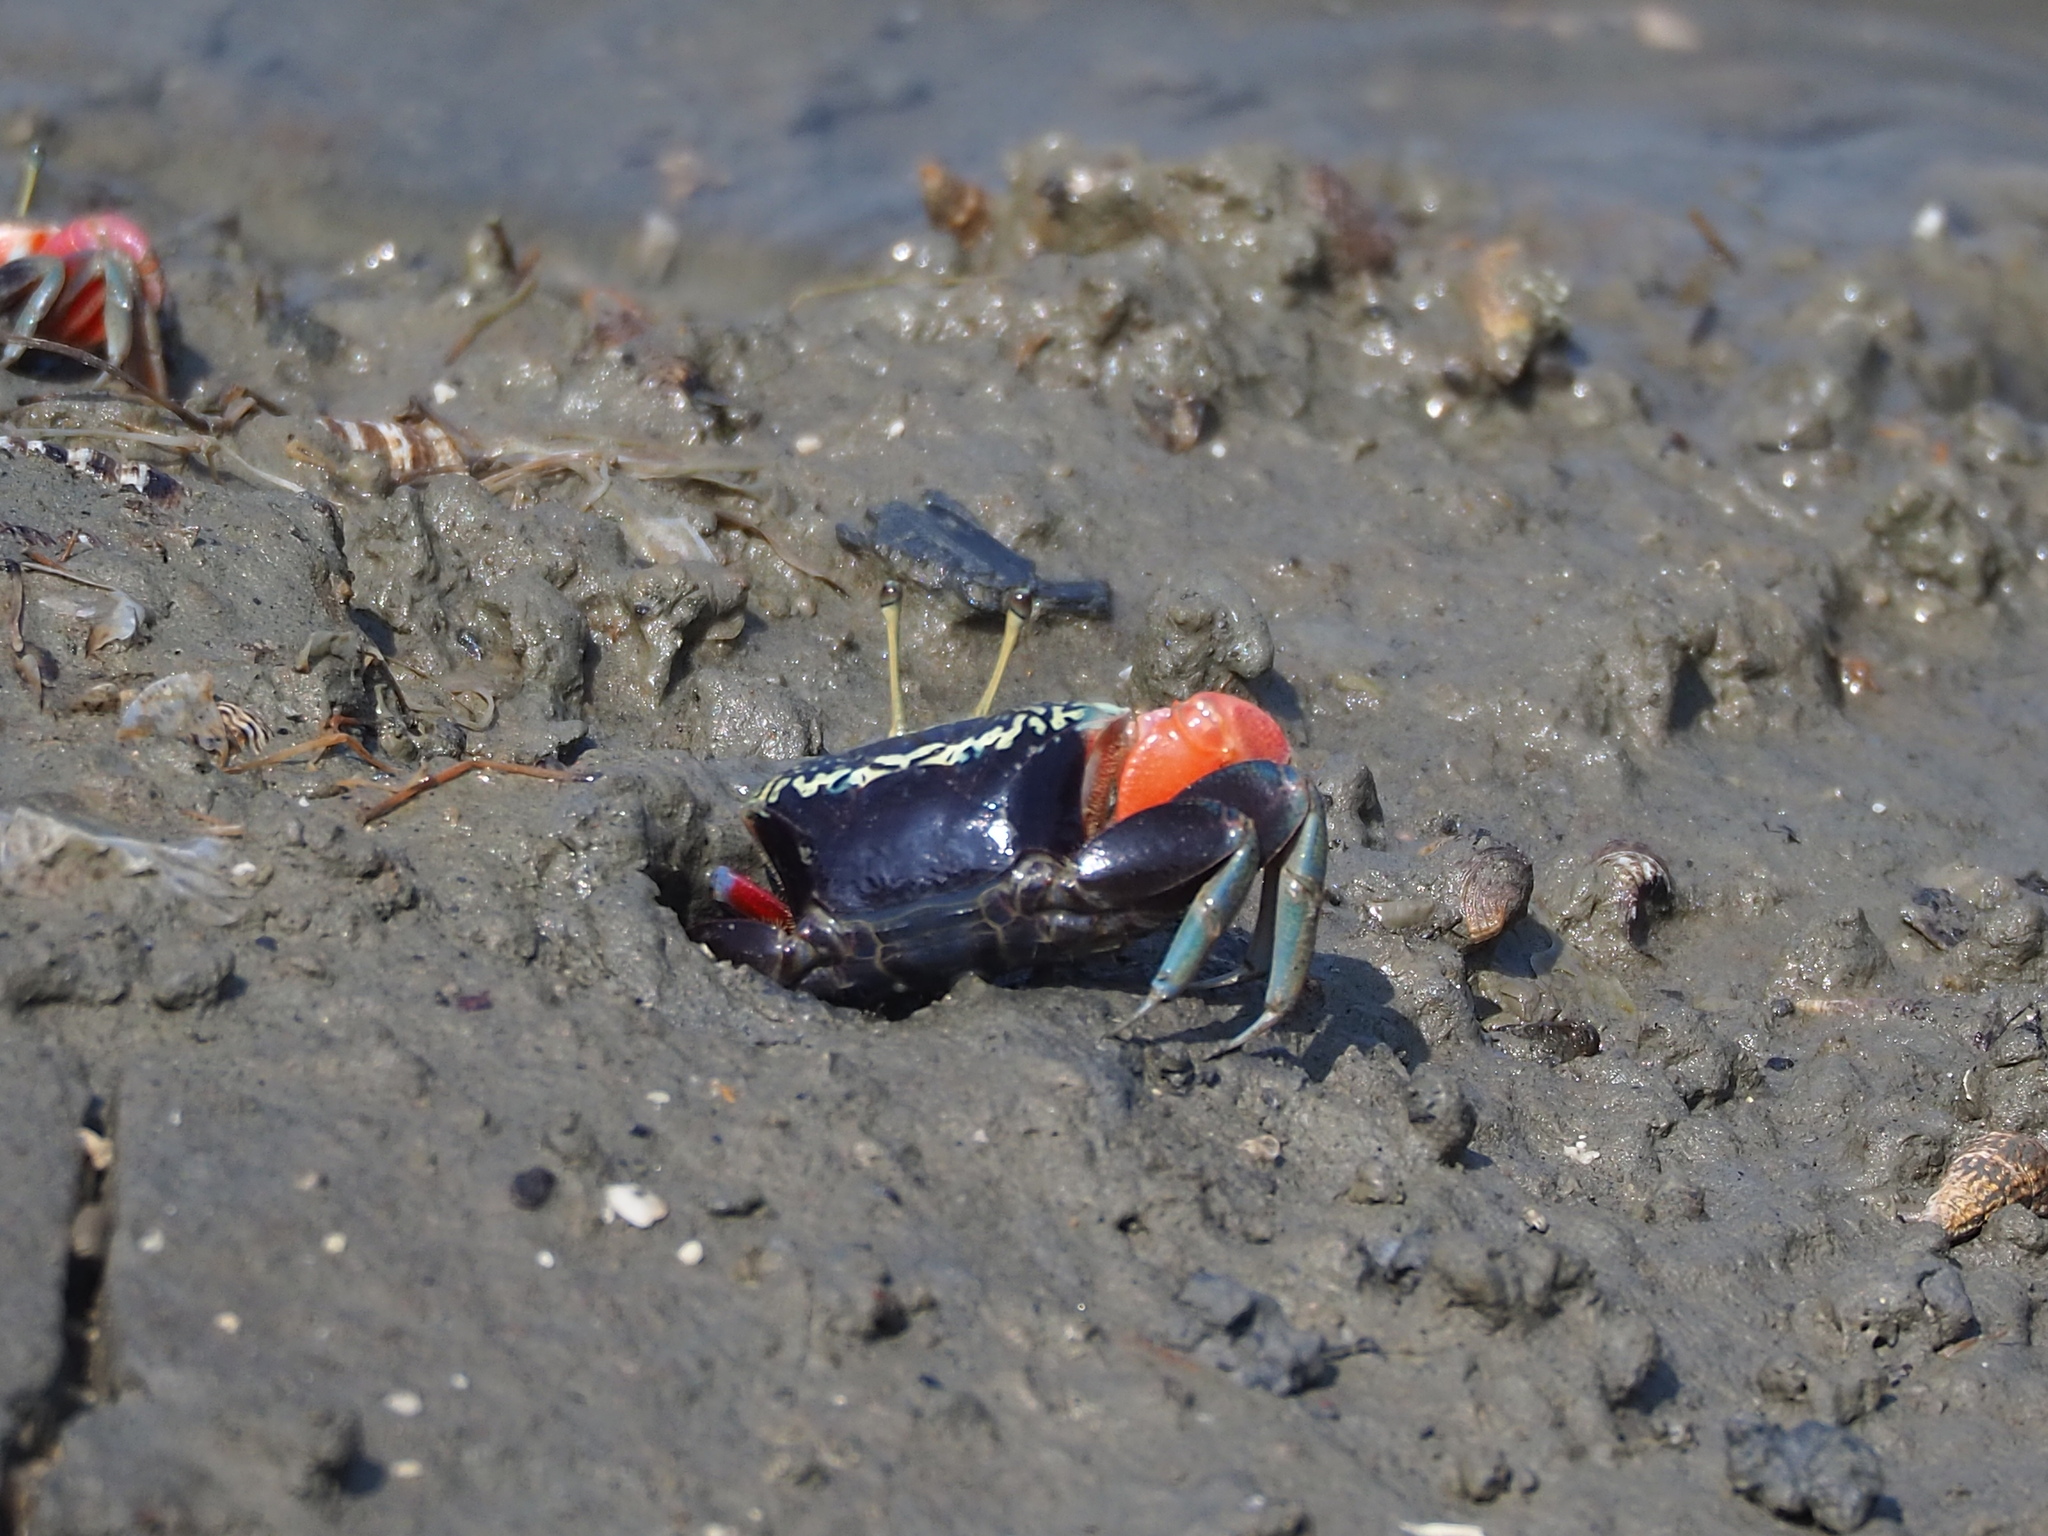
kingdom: Animalia
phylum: Arthropoda
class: Malacostraca
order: Decapoda
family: Ocypodidae
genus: Tubuca
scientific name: Tubuca arcuata
